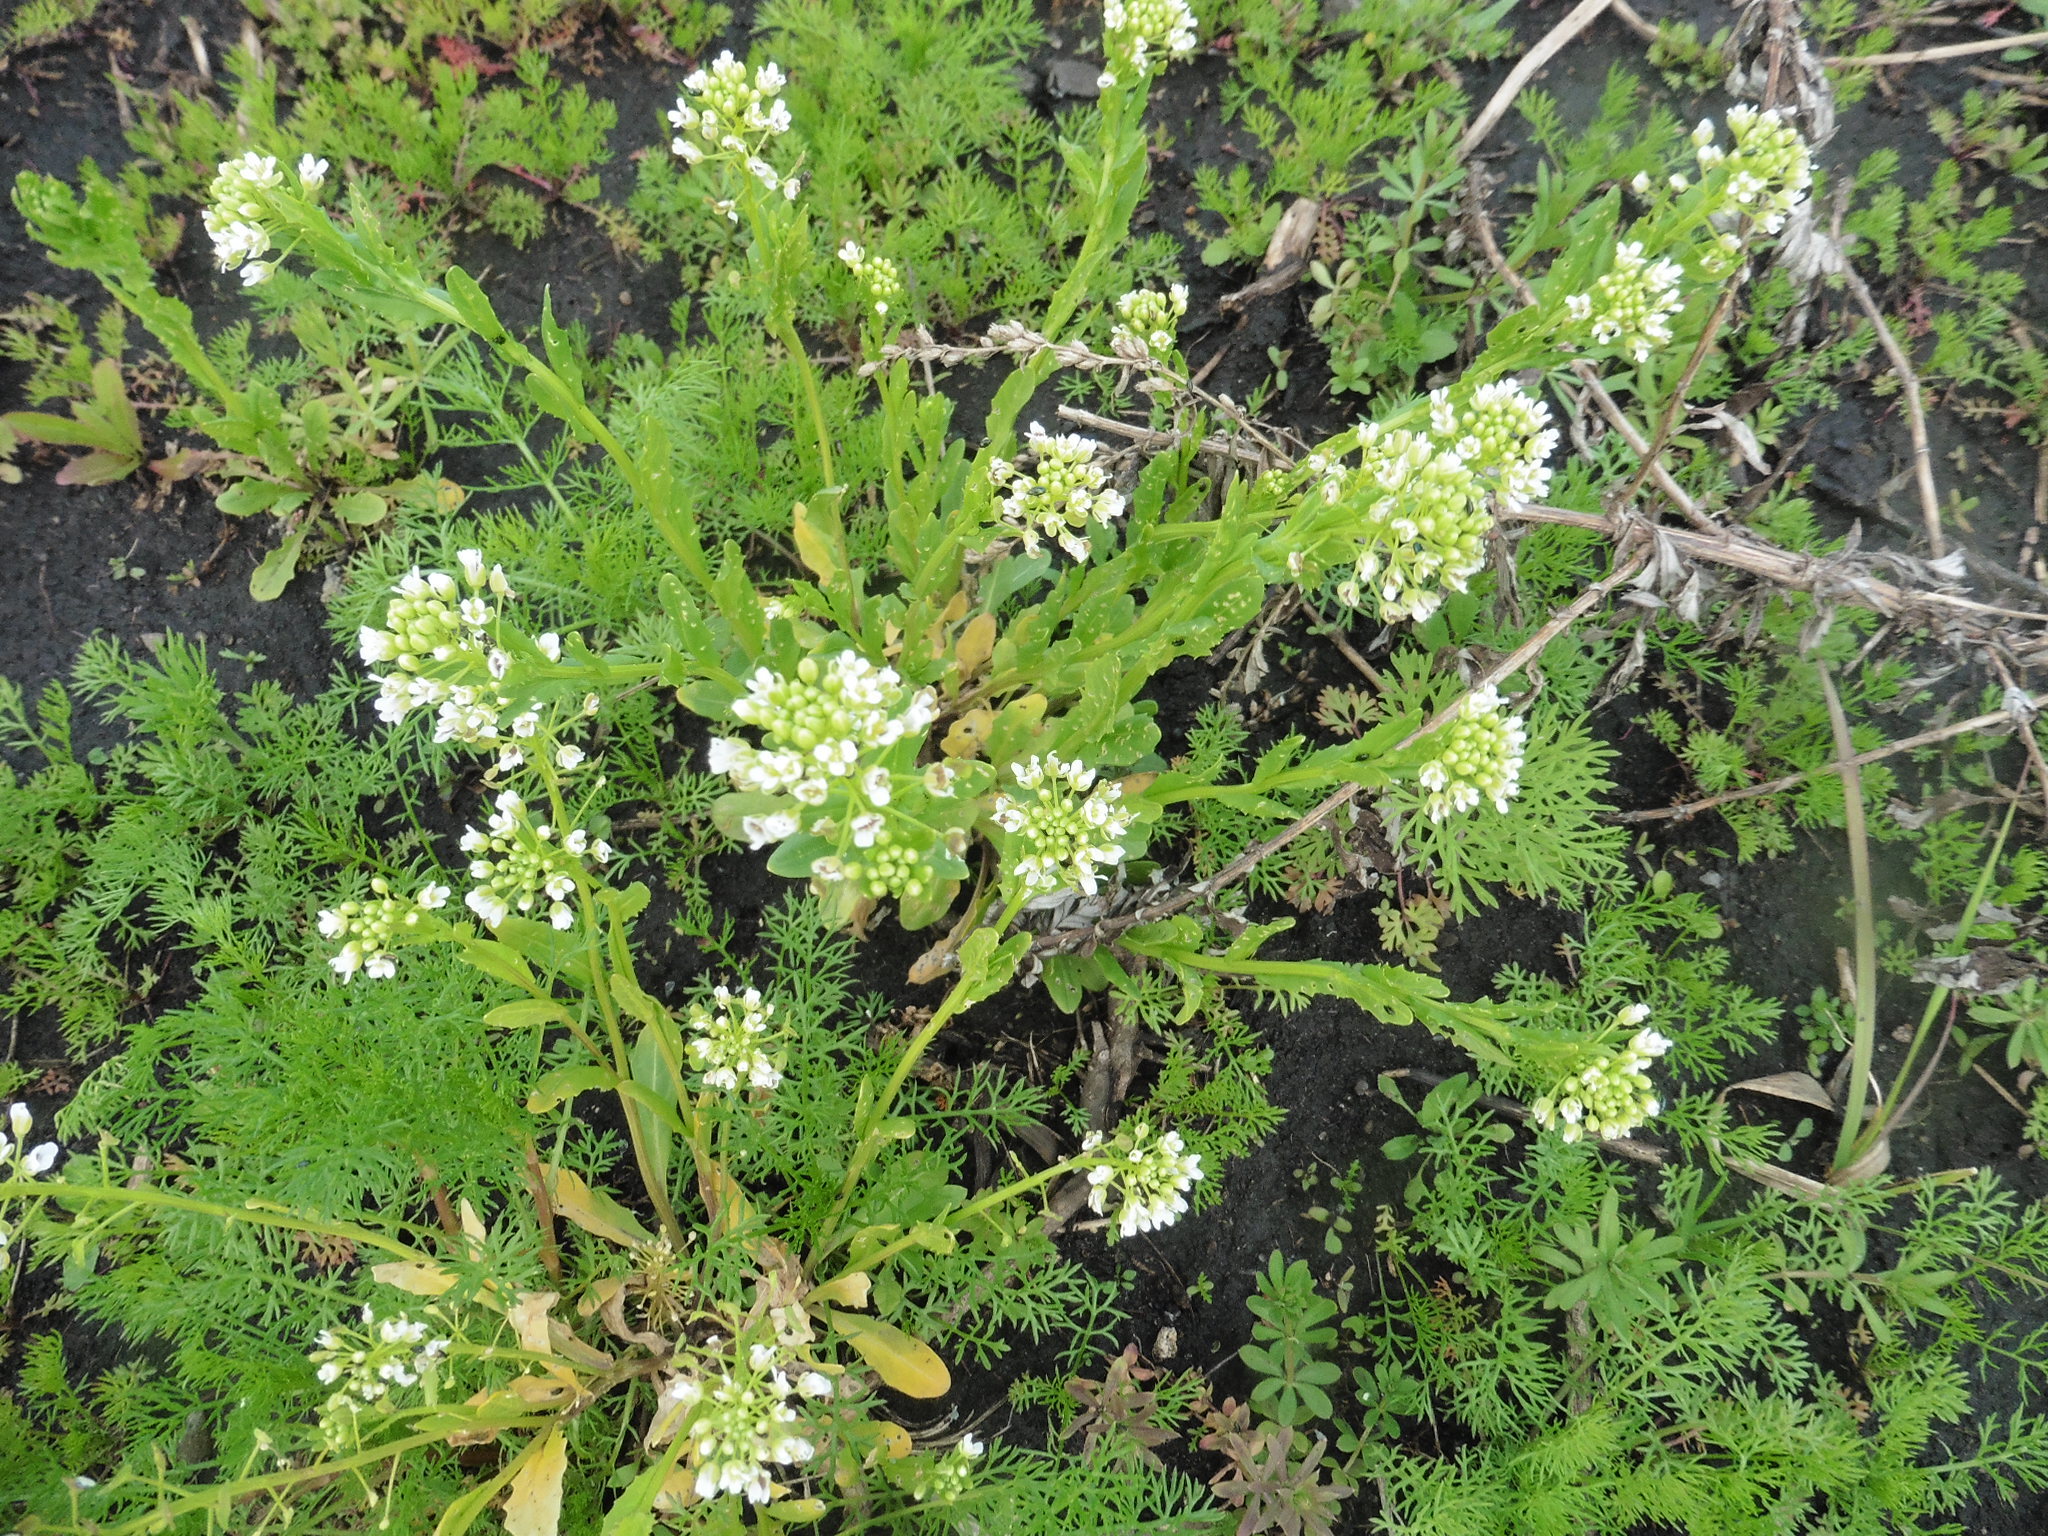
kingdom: Plantae
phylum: Tracheophyta
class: Magnoliopsida
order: Brassicales
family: Brassicaceae
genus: Thlaspi
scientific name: Thlaspi arvense
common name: Field pennycress
